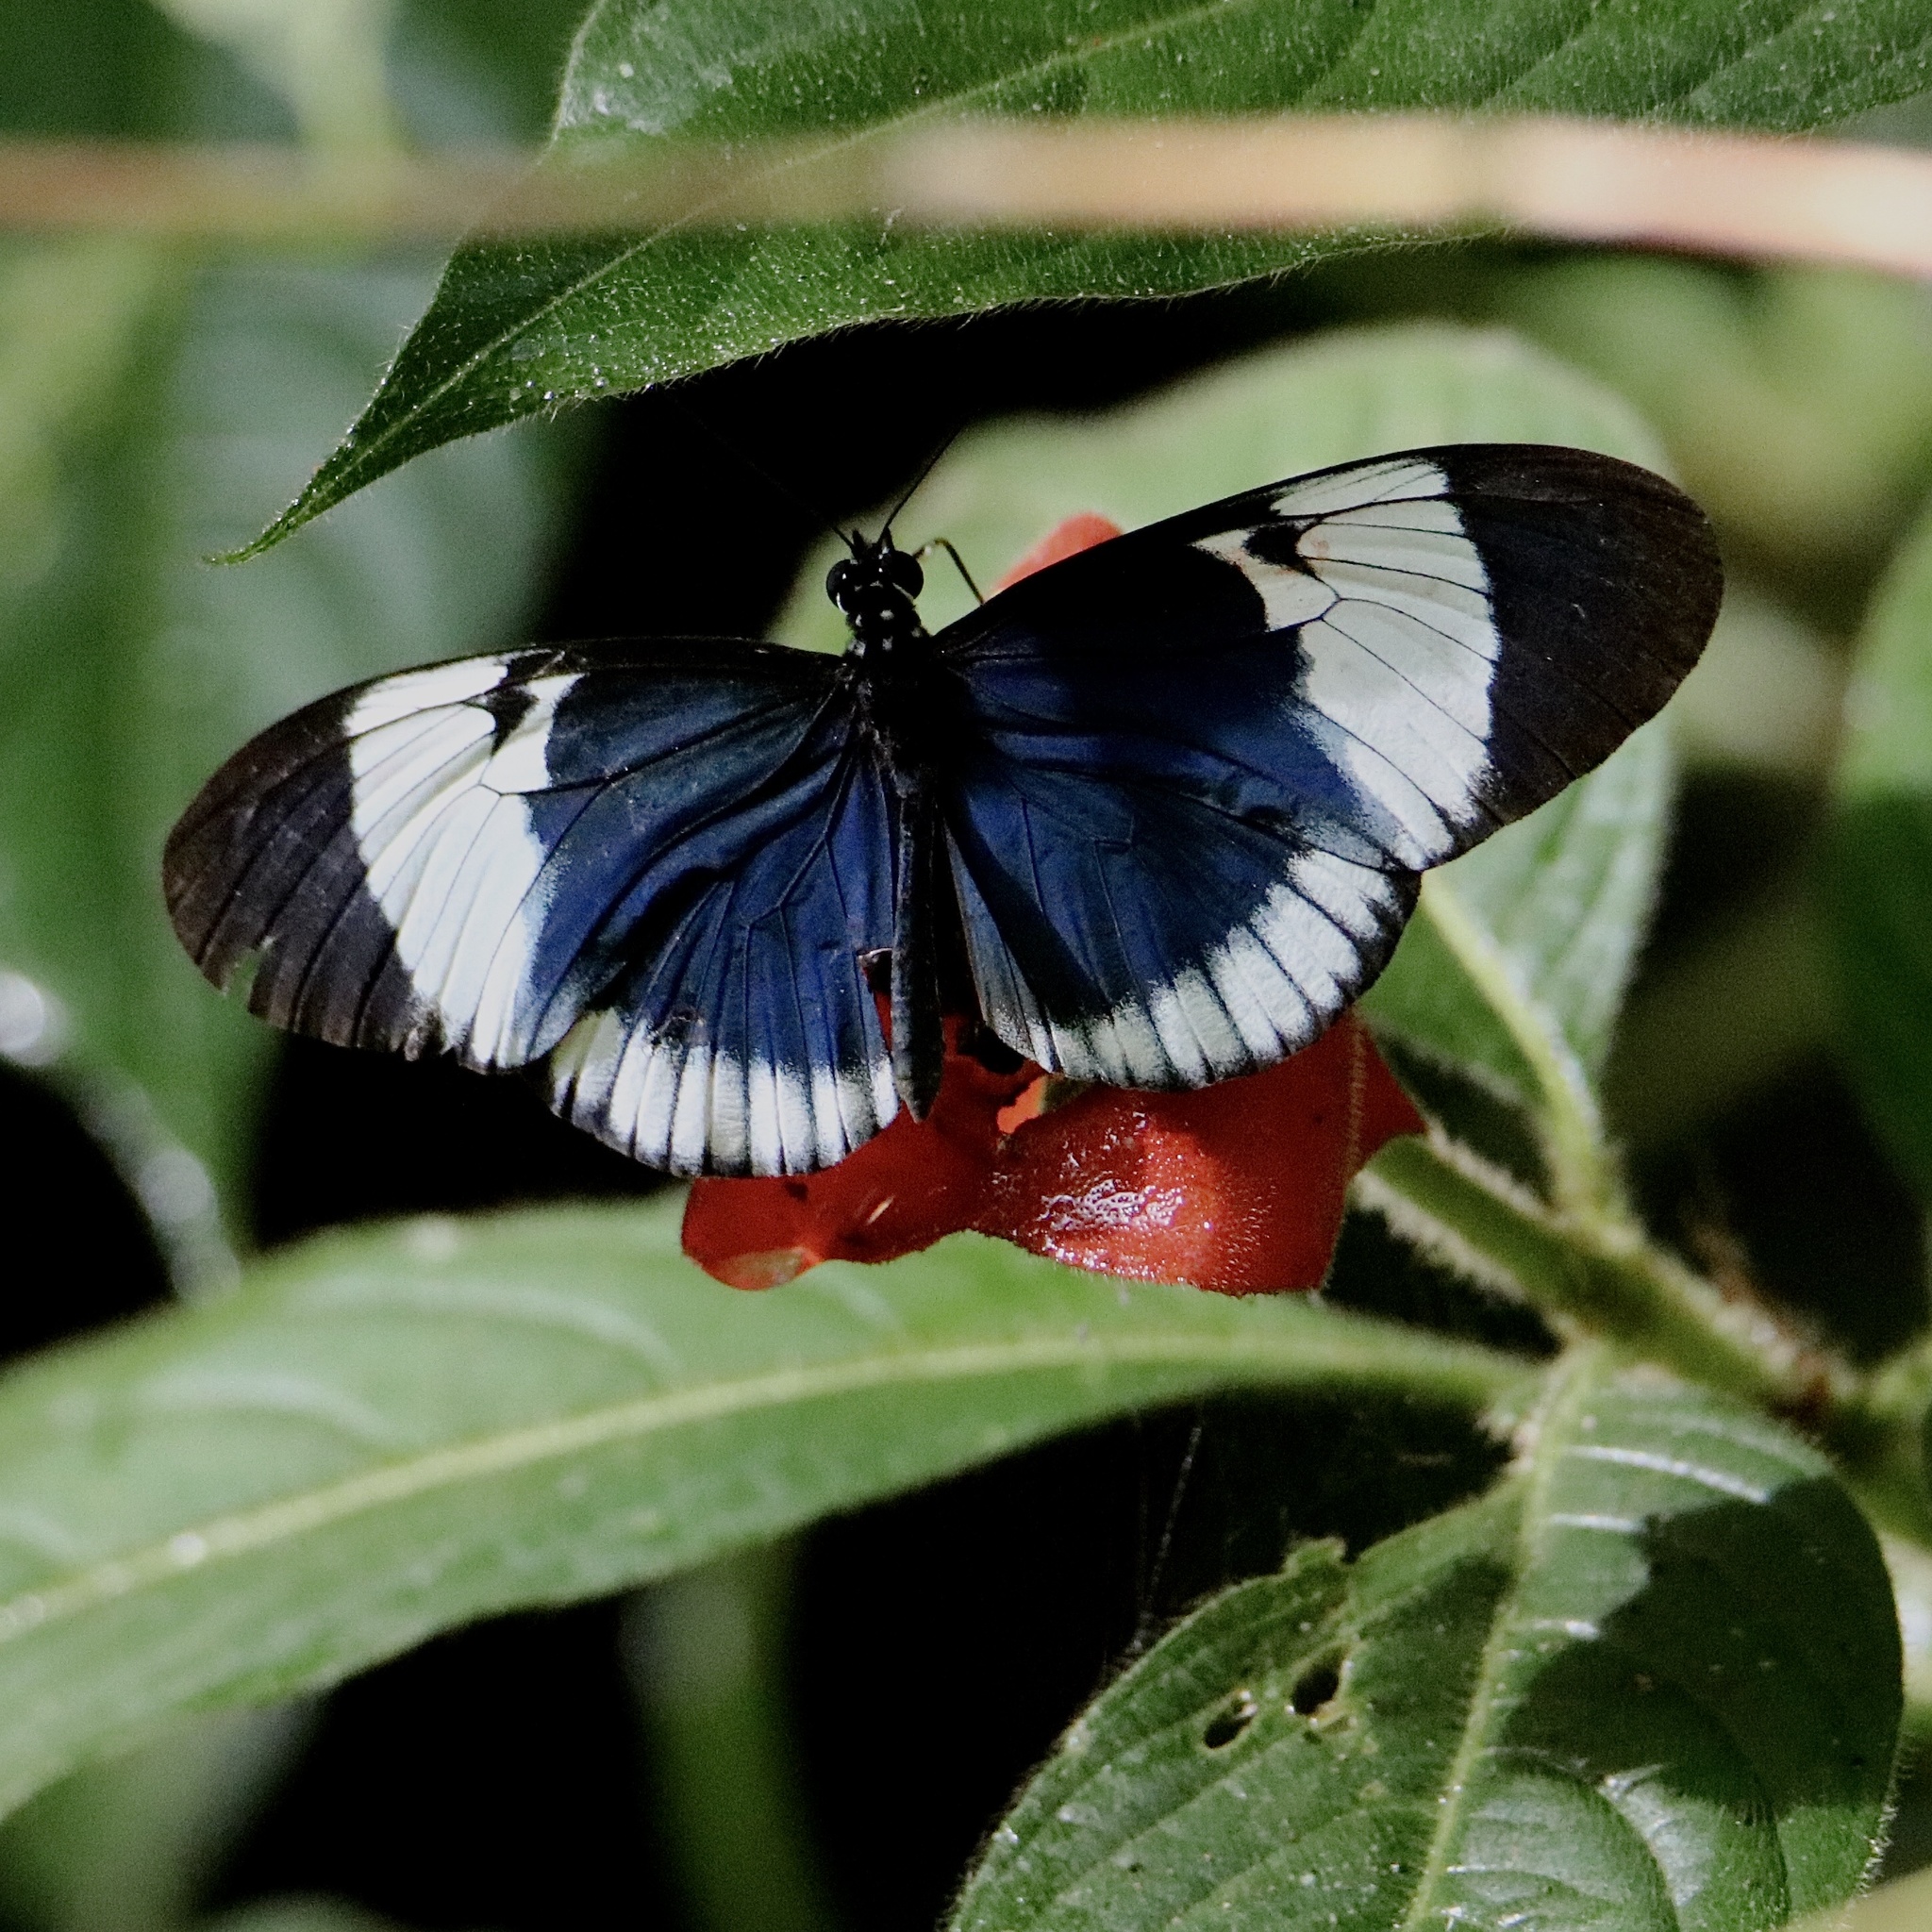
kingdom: Animalia
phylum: Arthropoda
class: Insecta
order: Lepidoptera
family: Nymphalidae
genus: Heliconius
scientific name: Heliconius cydno
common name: Cydno longwing
